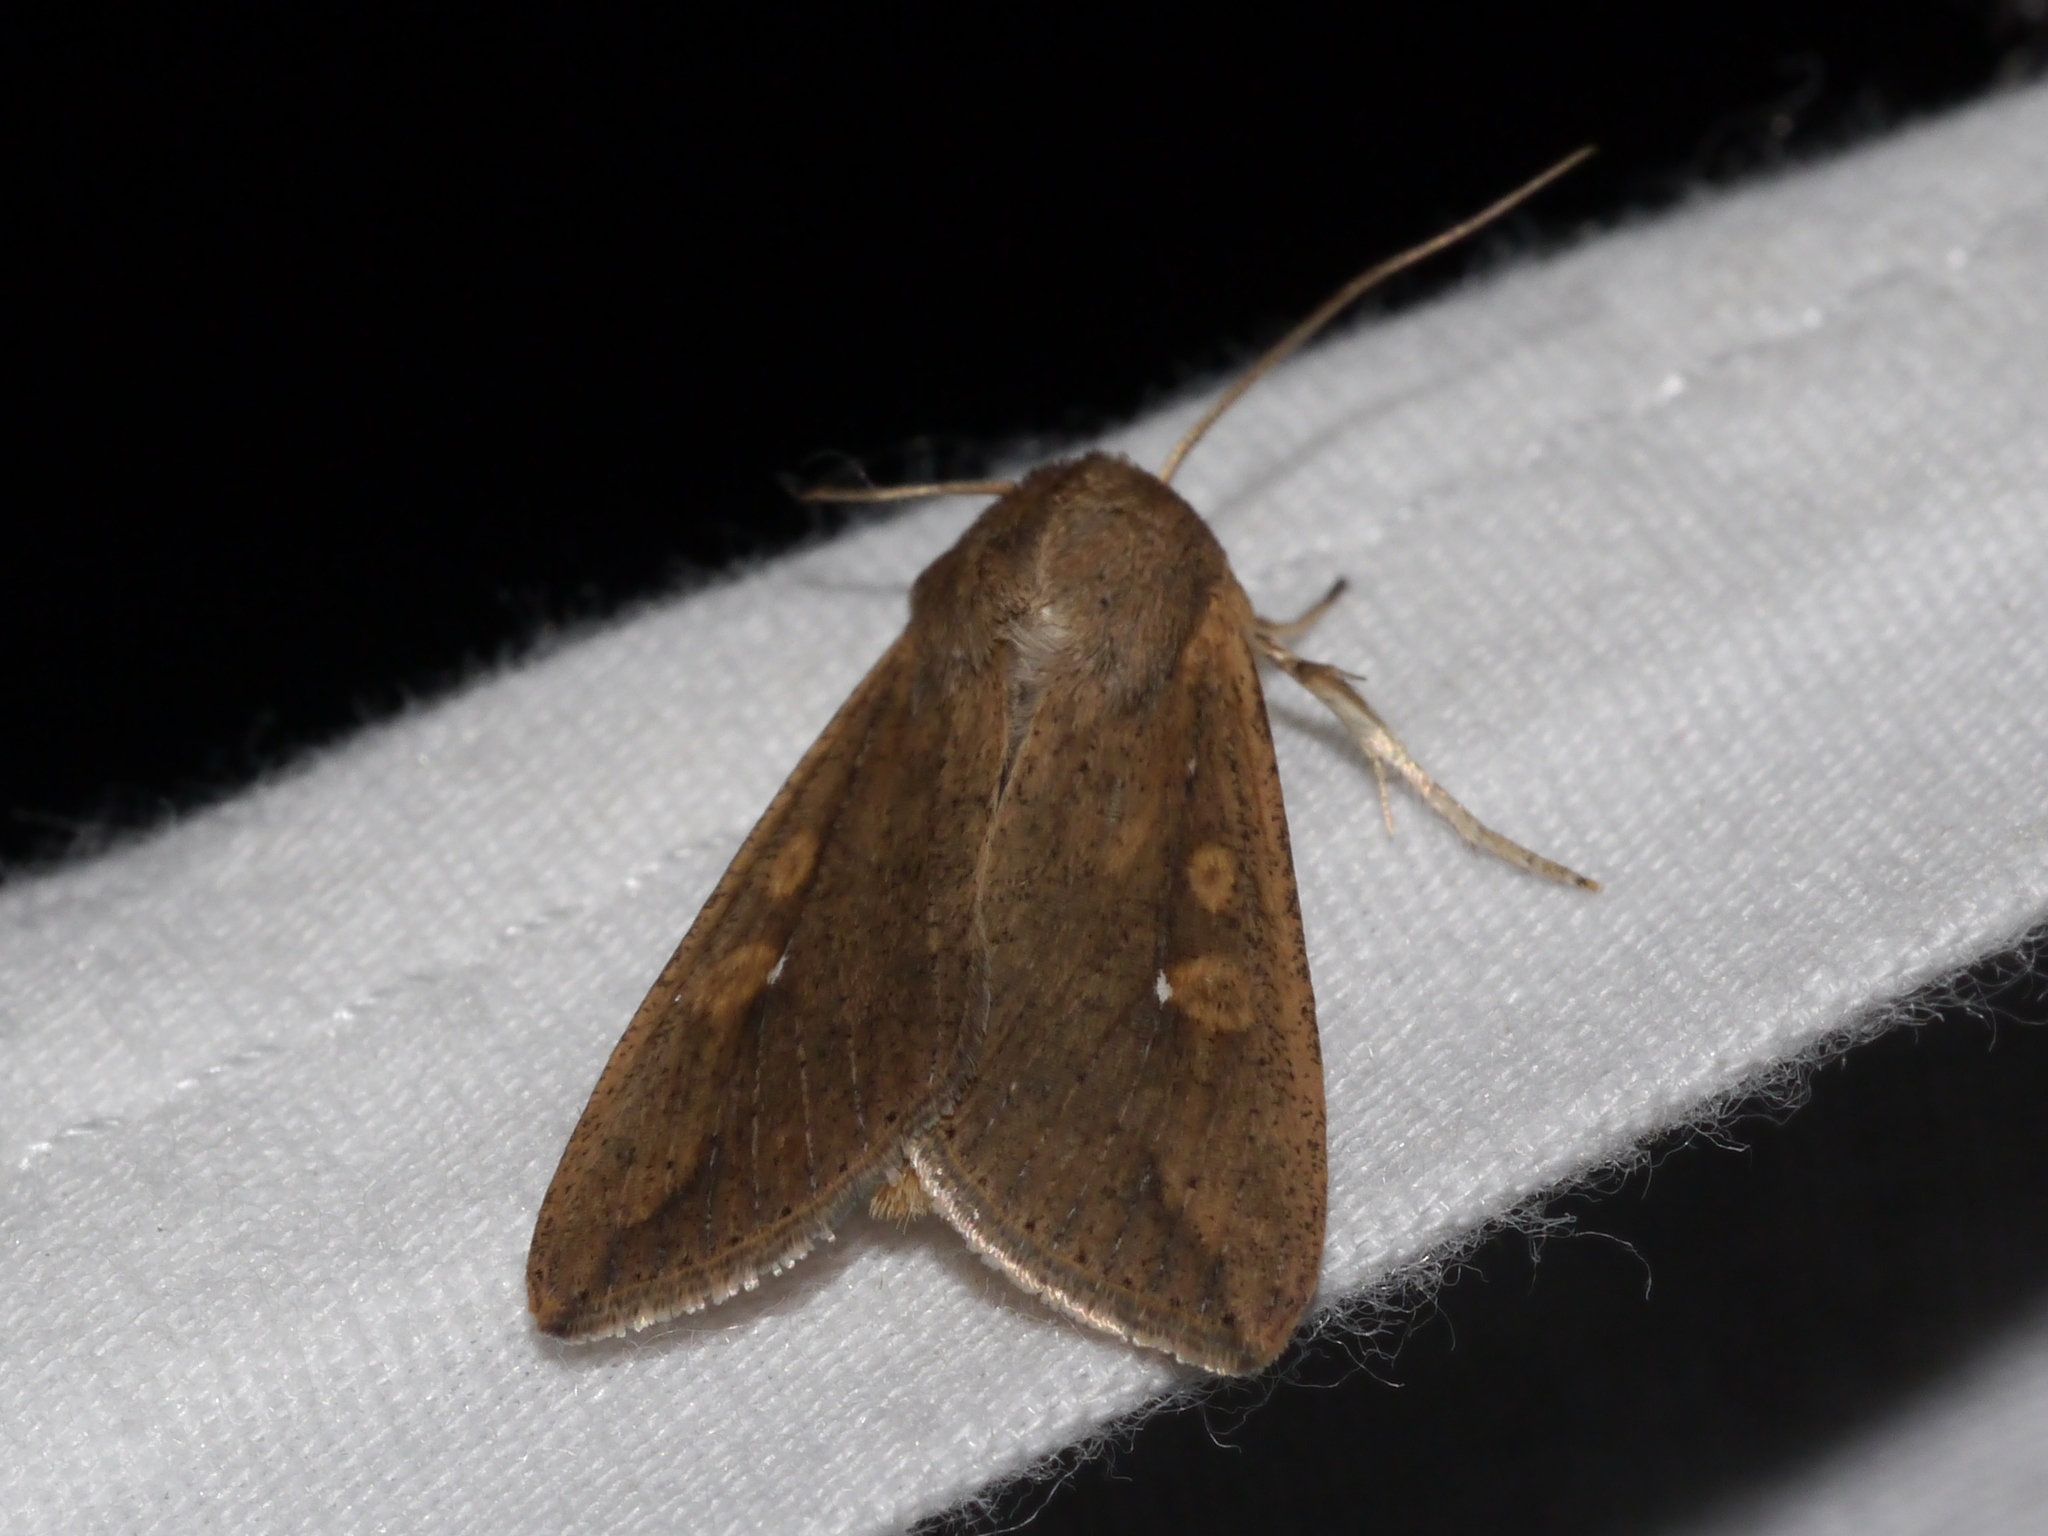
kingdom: Animalia
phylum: Arthropoda
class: Insecta
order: Lepidoptera
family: Noctuidae
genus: Mythimna
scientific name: Mythimna unipuncta
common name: White-speck
